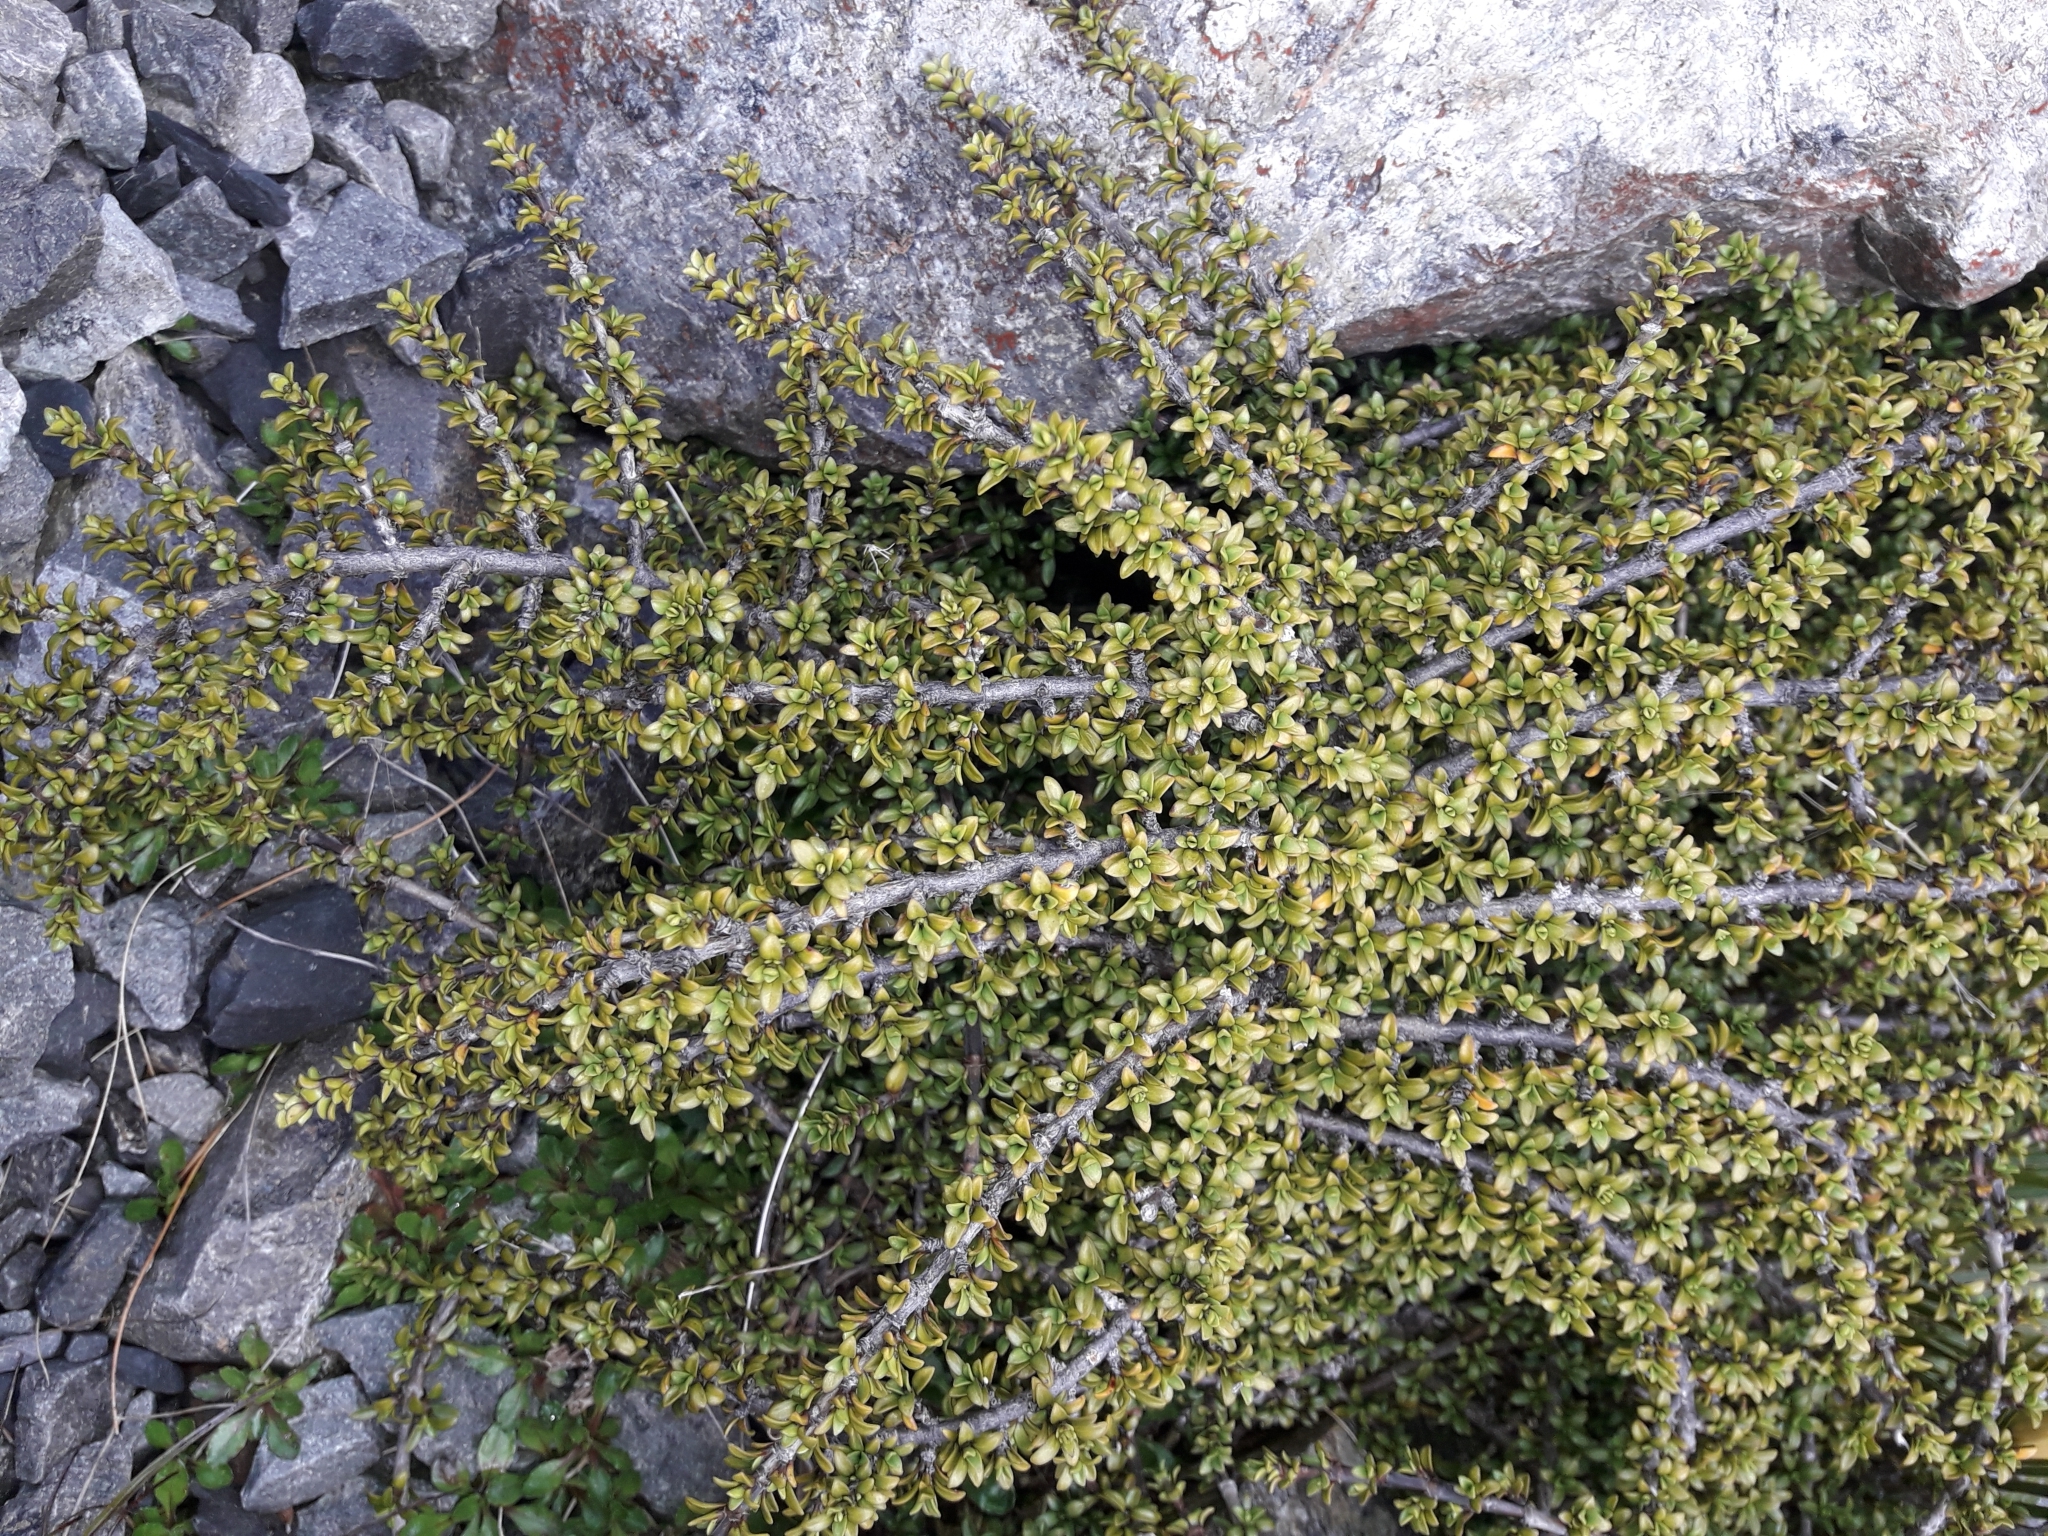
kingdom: Plantae
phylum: Tracheophyta
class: Magnoliopsida
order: Gentianales
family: Rubiaceae
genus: Coprosma
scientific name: Coprosma fowerakeri
